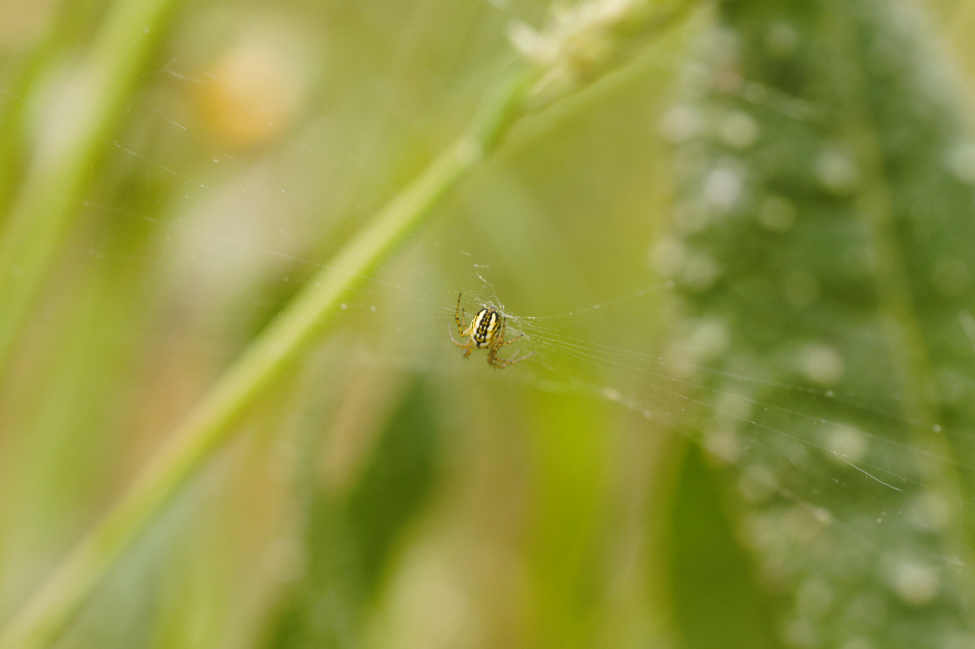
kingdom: Animalia
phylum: Arthropoda
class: Arachnida
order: Araneae
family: Araneidae
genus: Mangora
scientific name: Mangora acalypha
